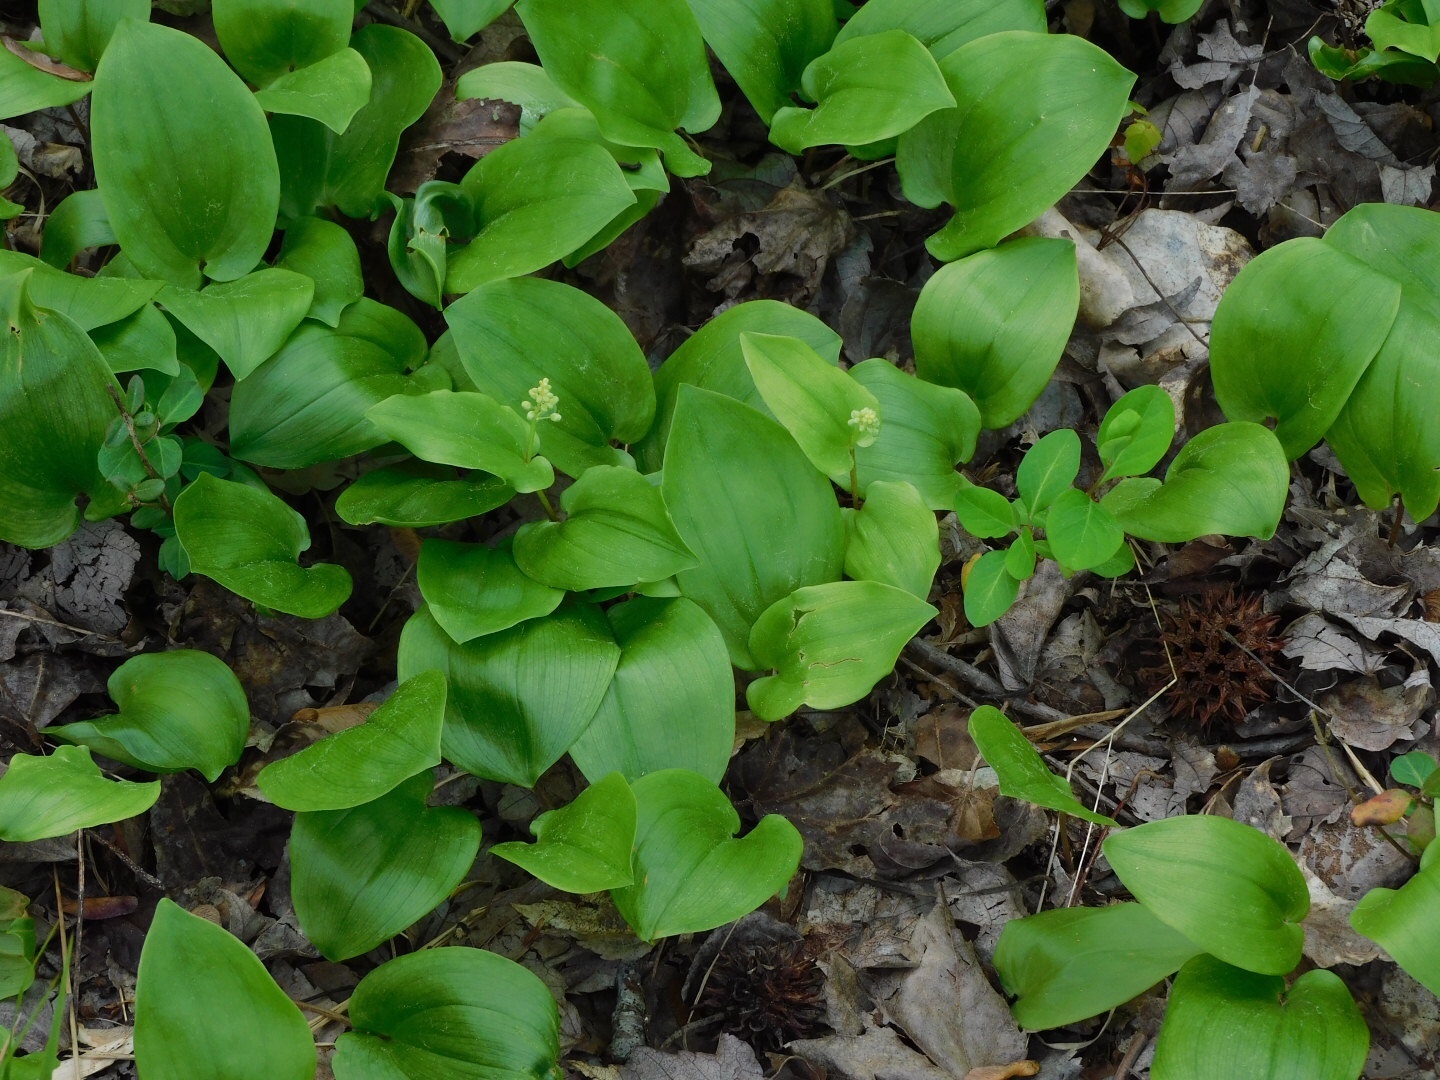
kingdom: Plantae
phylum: Tracheophyta
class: Liliopsida
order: Asparagales
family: Asparagaceae
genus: Maianthemum
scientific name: Maianthemum canadense
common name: False lily-of-the-valley
